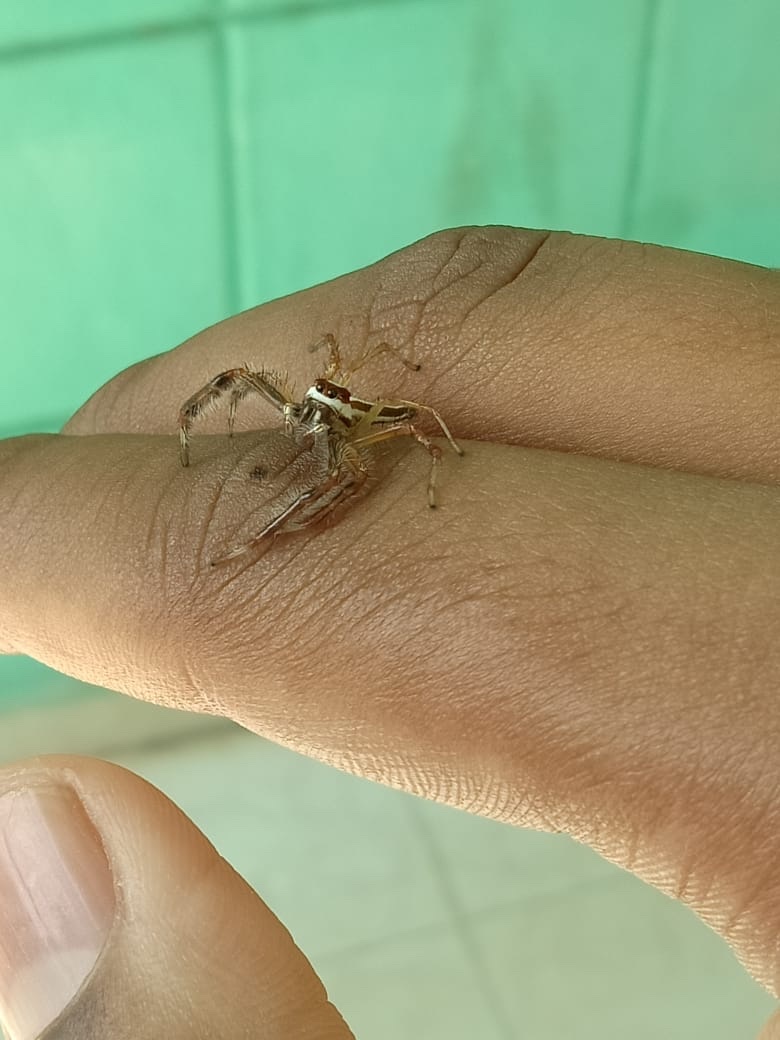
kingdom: Animalia
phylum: Arthropoda
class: Arachnida
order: Araneae
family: Salticidae
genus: Telamonia
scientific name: Telamonia dimidiata
